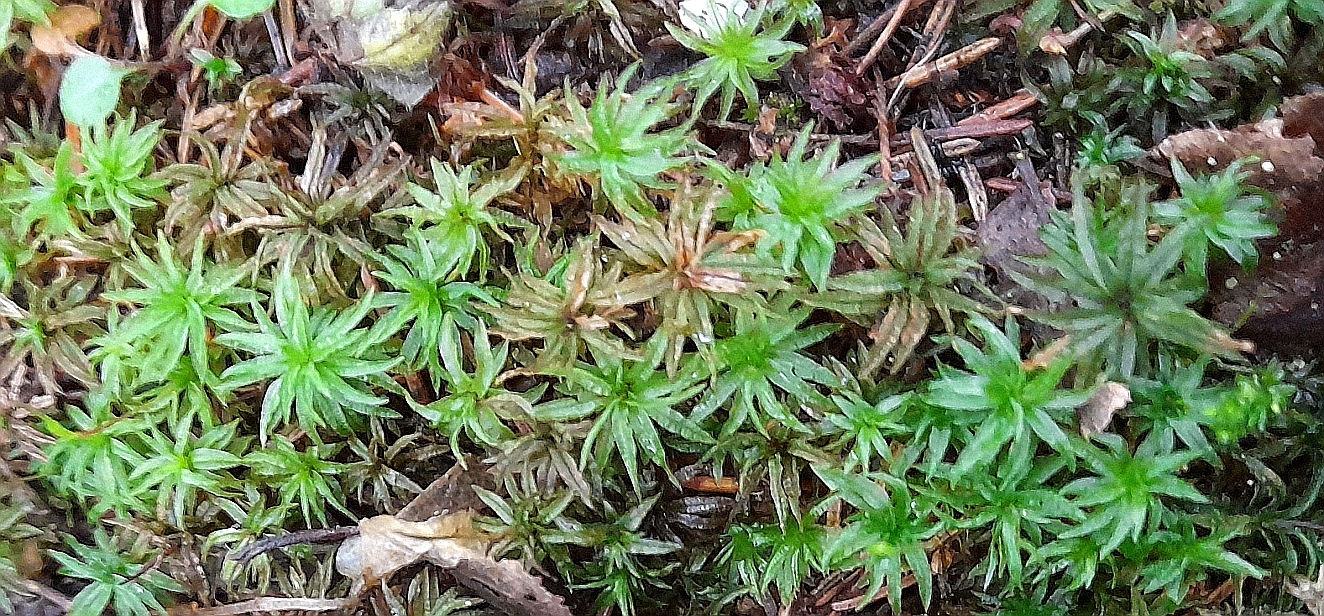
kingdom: Plantae
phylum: Bryophyta
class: Polytrichopsida
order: Polytrichales
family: Polytrichaceae
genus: Atrichum
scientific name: Atrichum undulatum
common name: Common smoothcap
